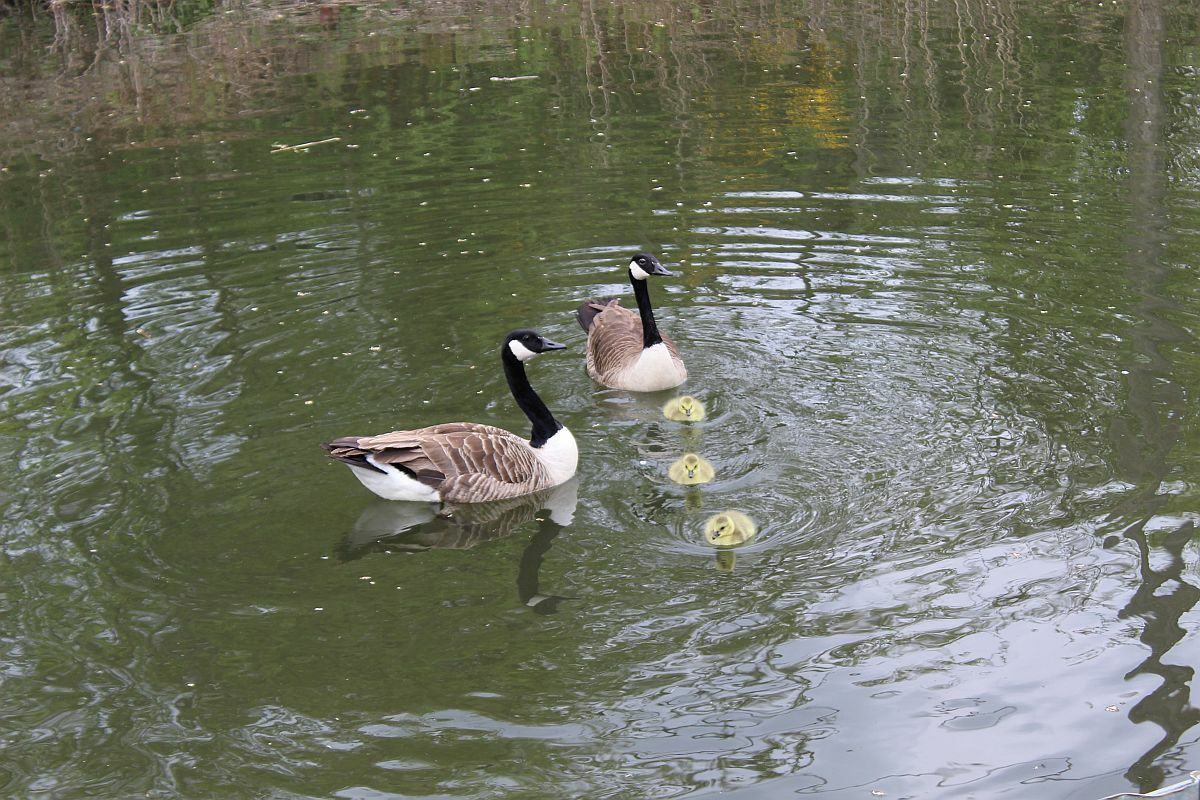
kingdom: Animalia
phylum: Chordata
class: Aves
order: Anseriformes
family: Anatidae
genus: Branta
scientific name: Branta canadensis
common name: Canada goose
